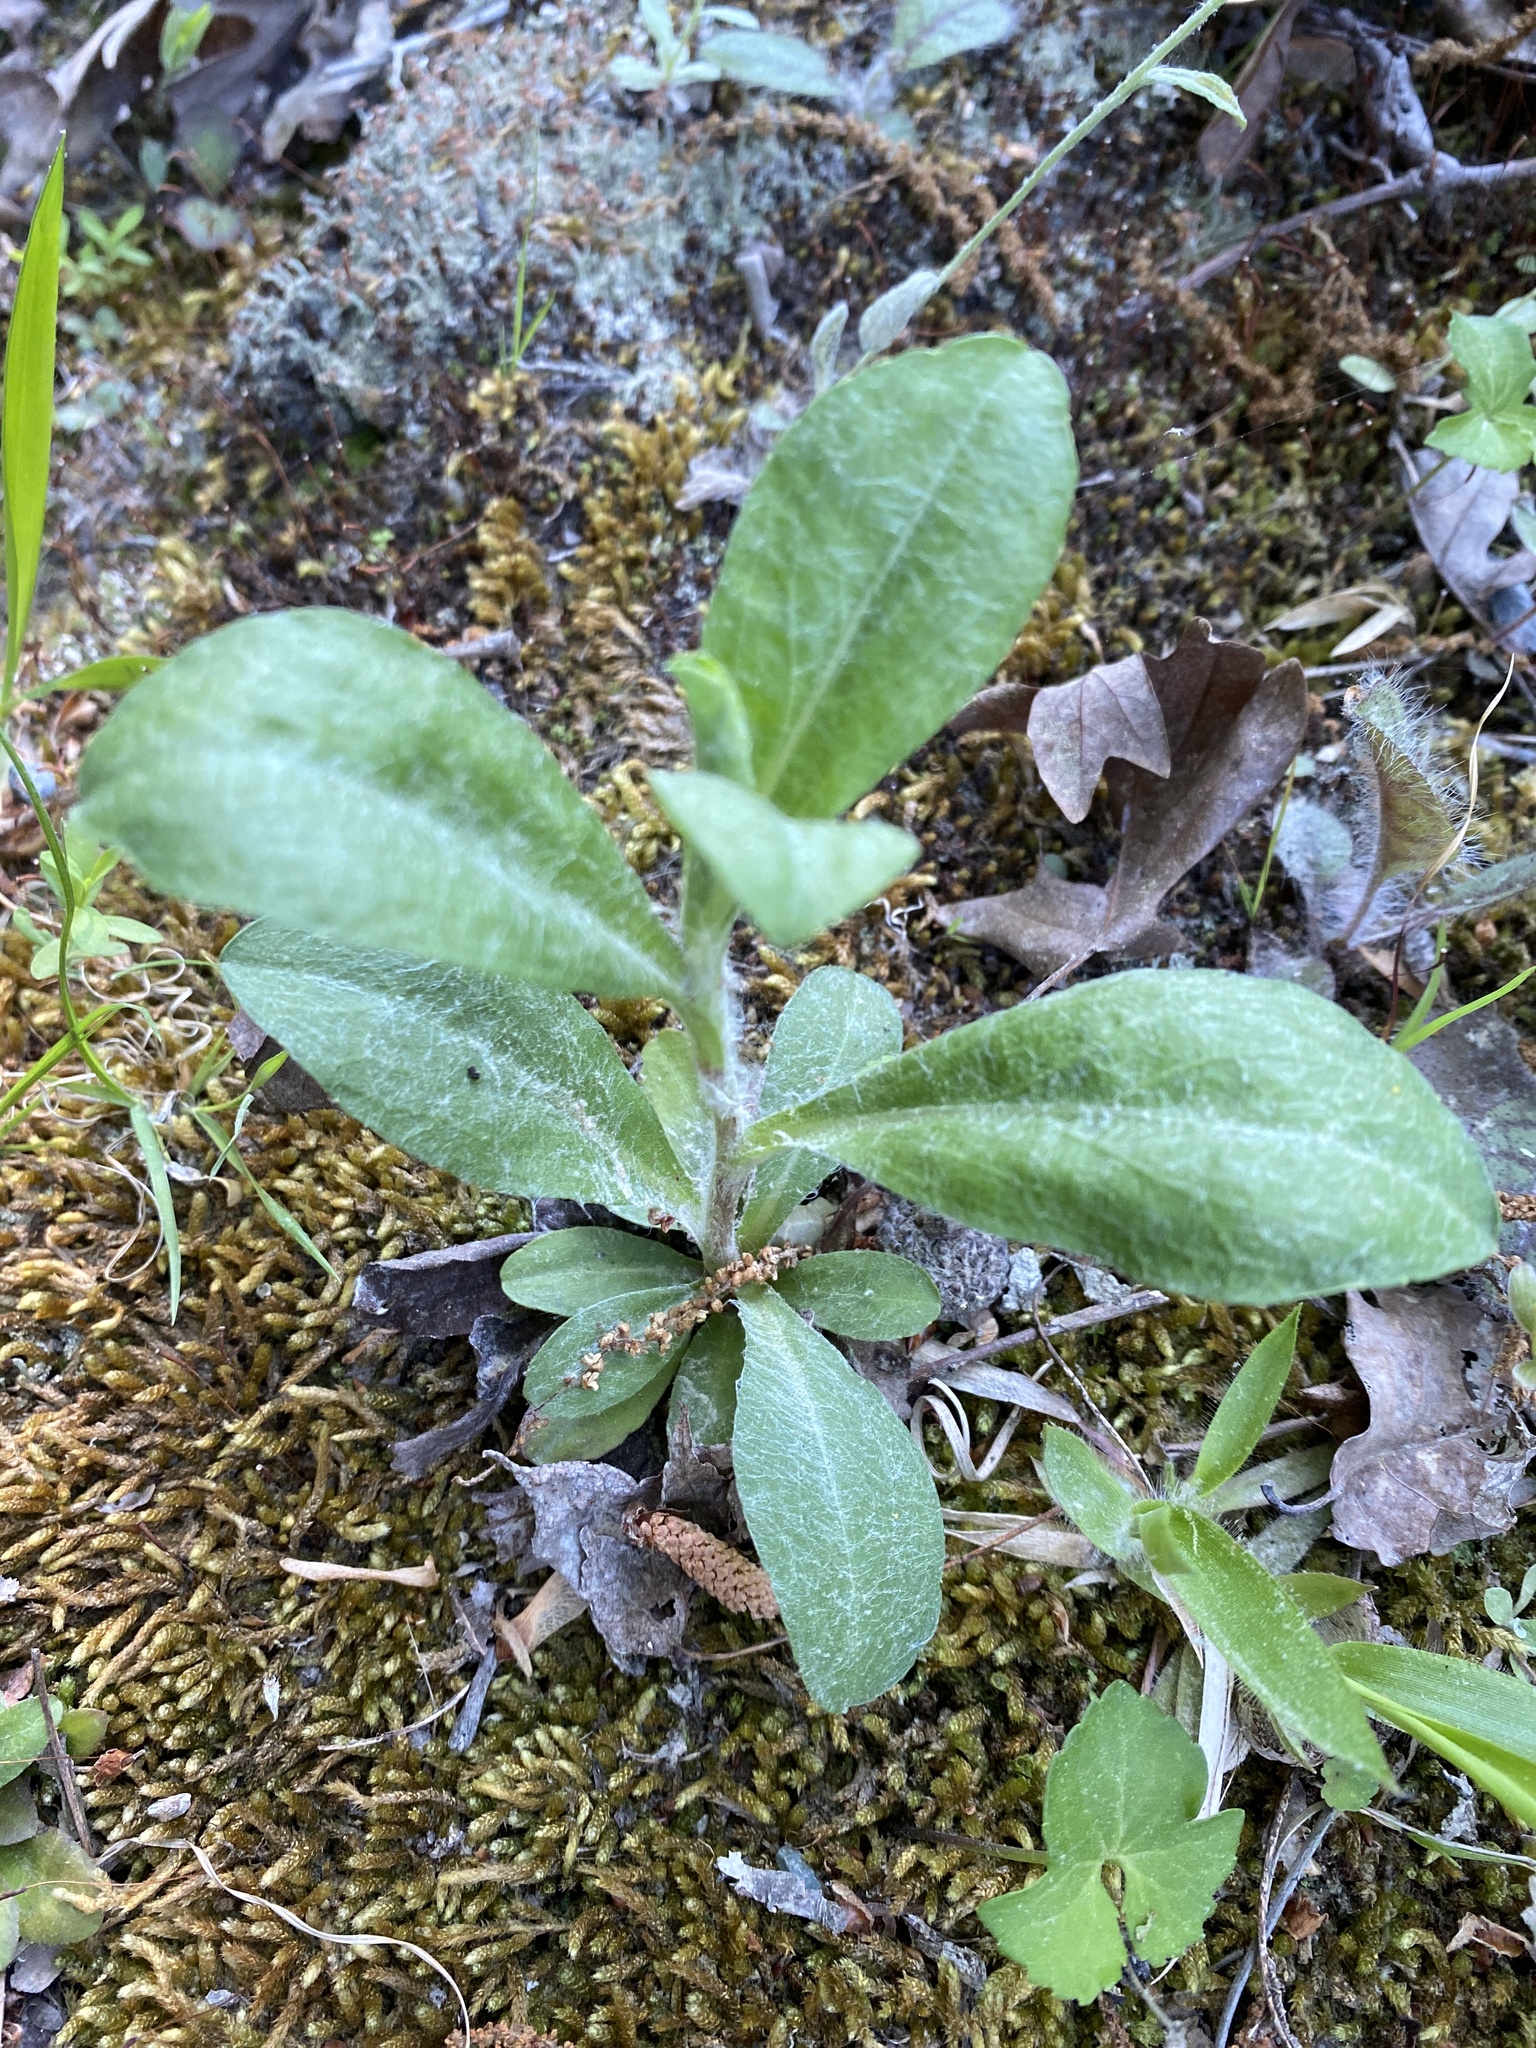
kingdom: Plantae
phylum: Tracheophyta
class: Magnoliopsida
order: Asterales
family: Asteraceae
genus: Chrysopsis
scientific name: Chrysopsis mariana
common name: Maryland golden-aster
